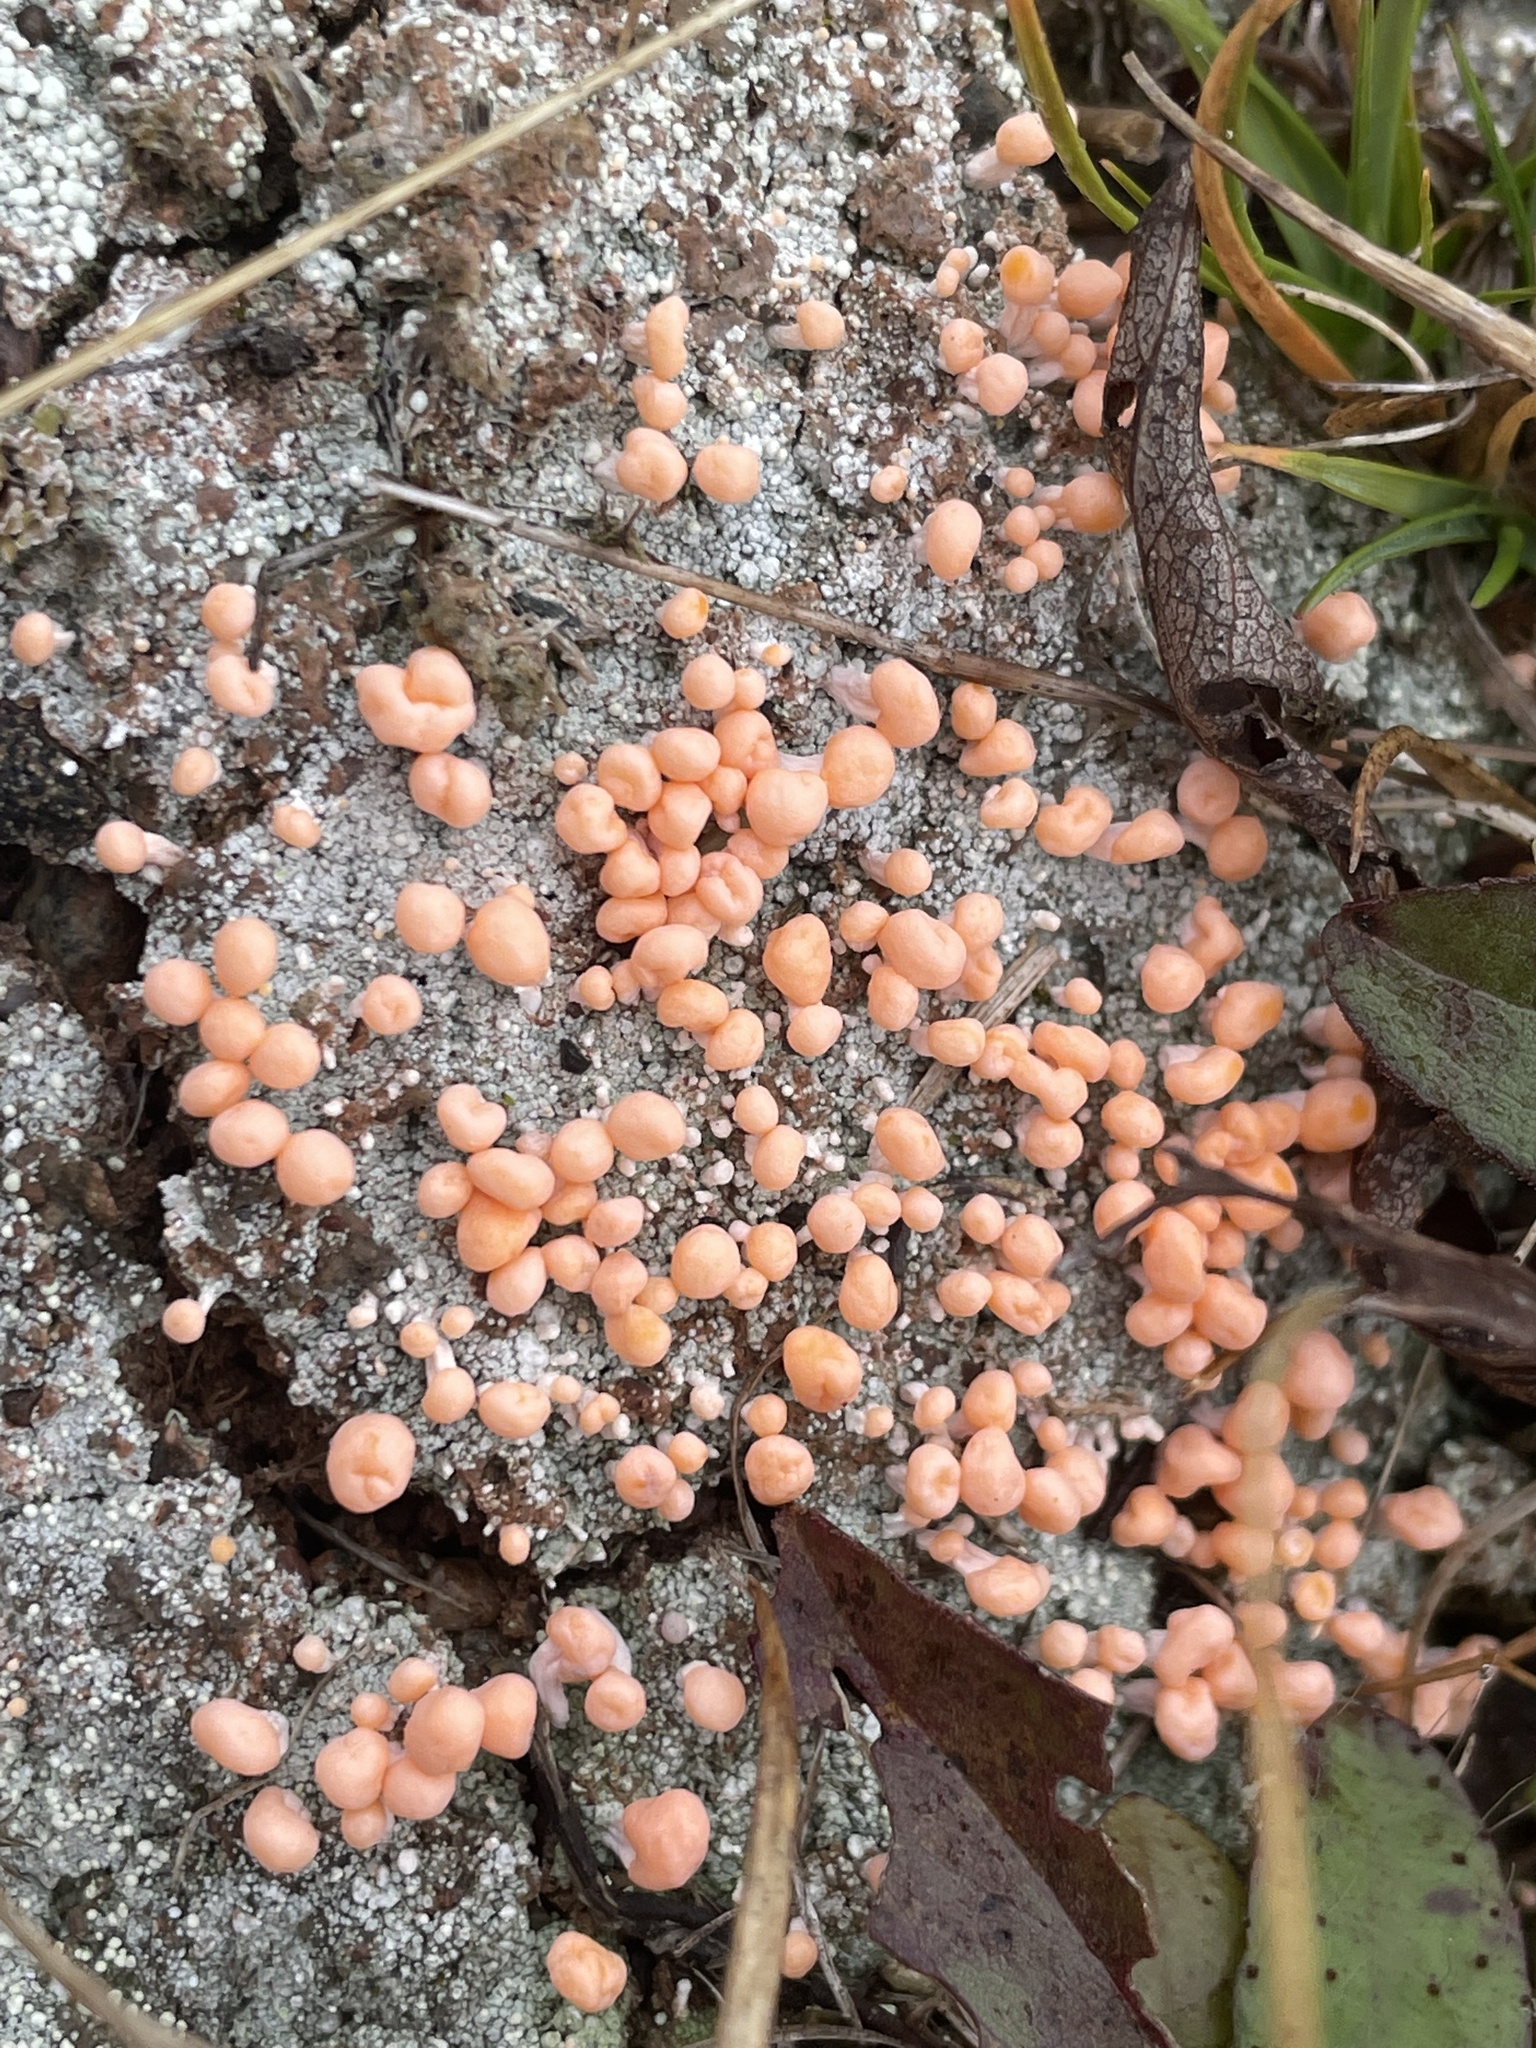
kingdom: Fungi
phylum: Ascomycota
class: Lecanoromycetes
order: Pertusariales
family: Icmadophilaceae
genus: Dibaeis
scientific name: Dibaeis baeomyces
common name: Pink earth lichen
